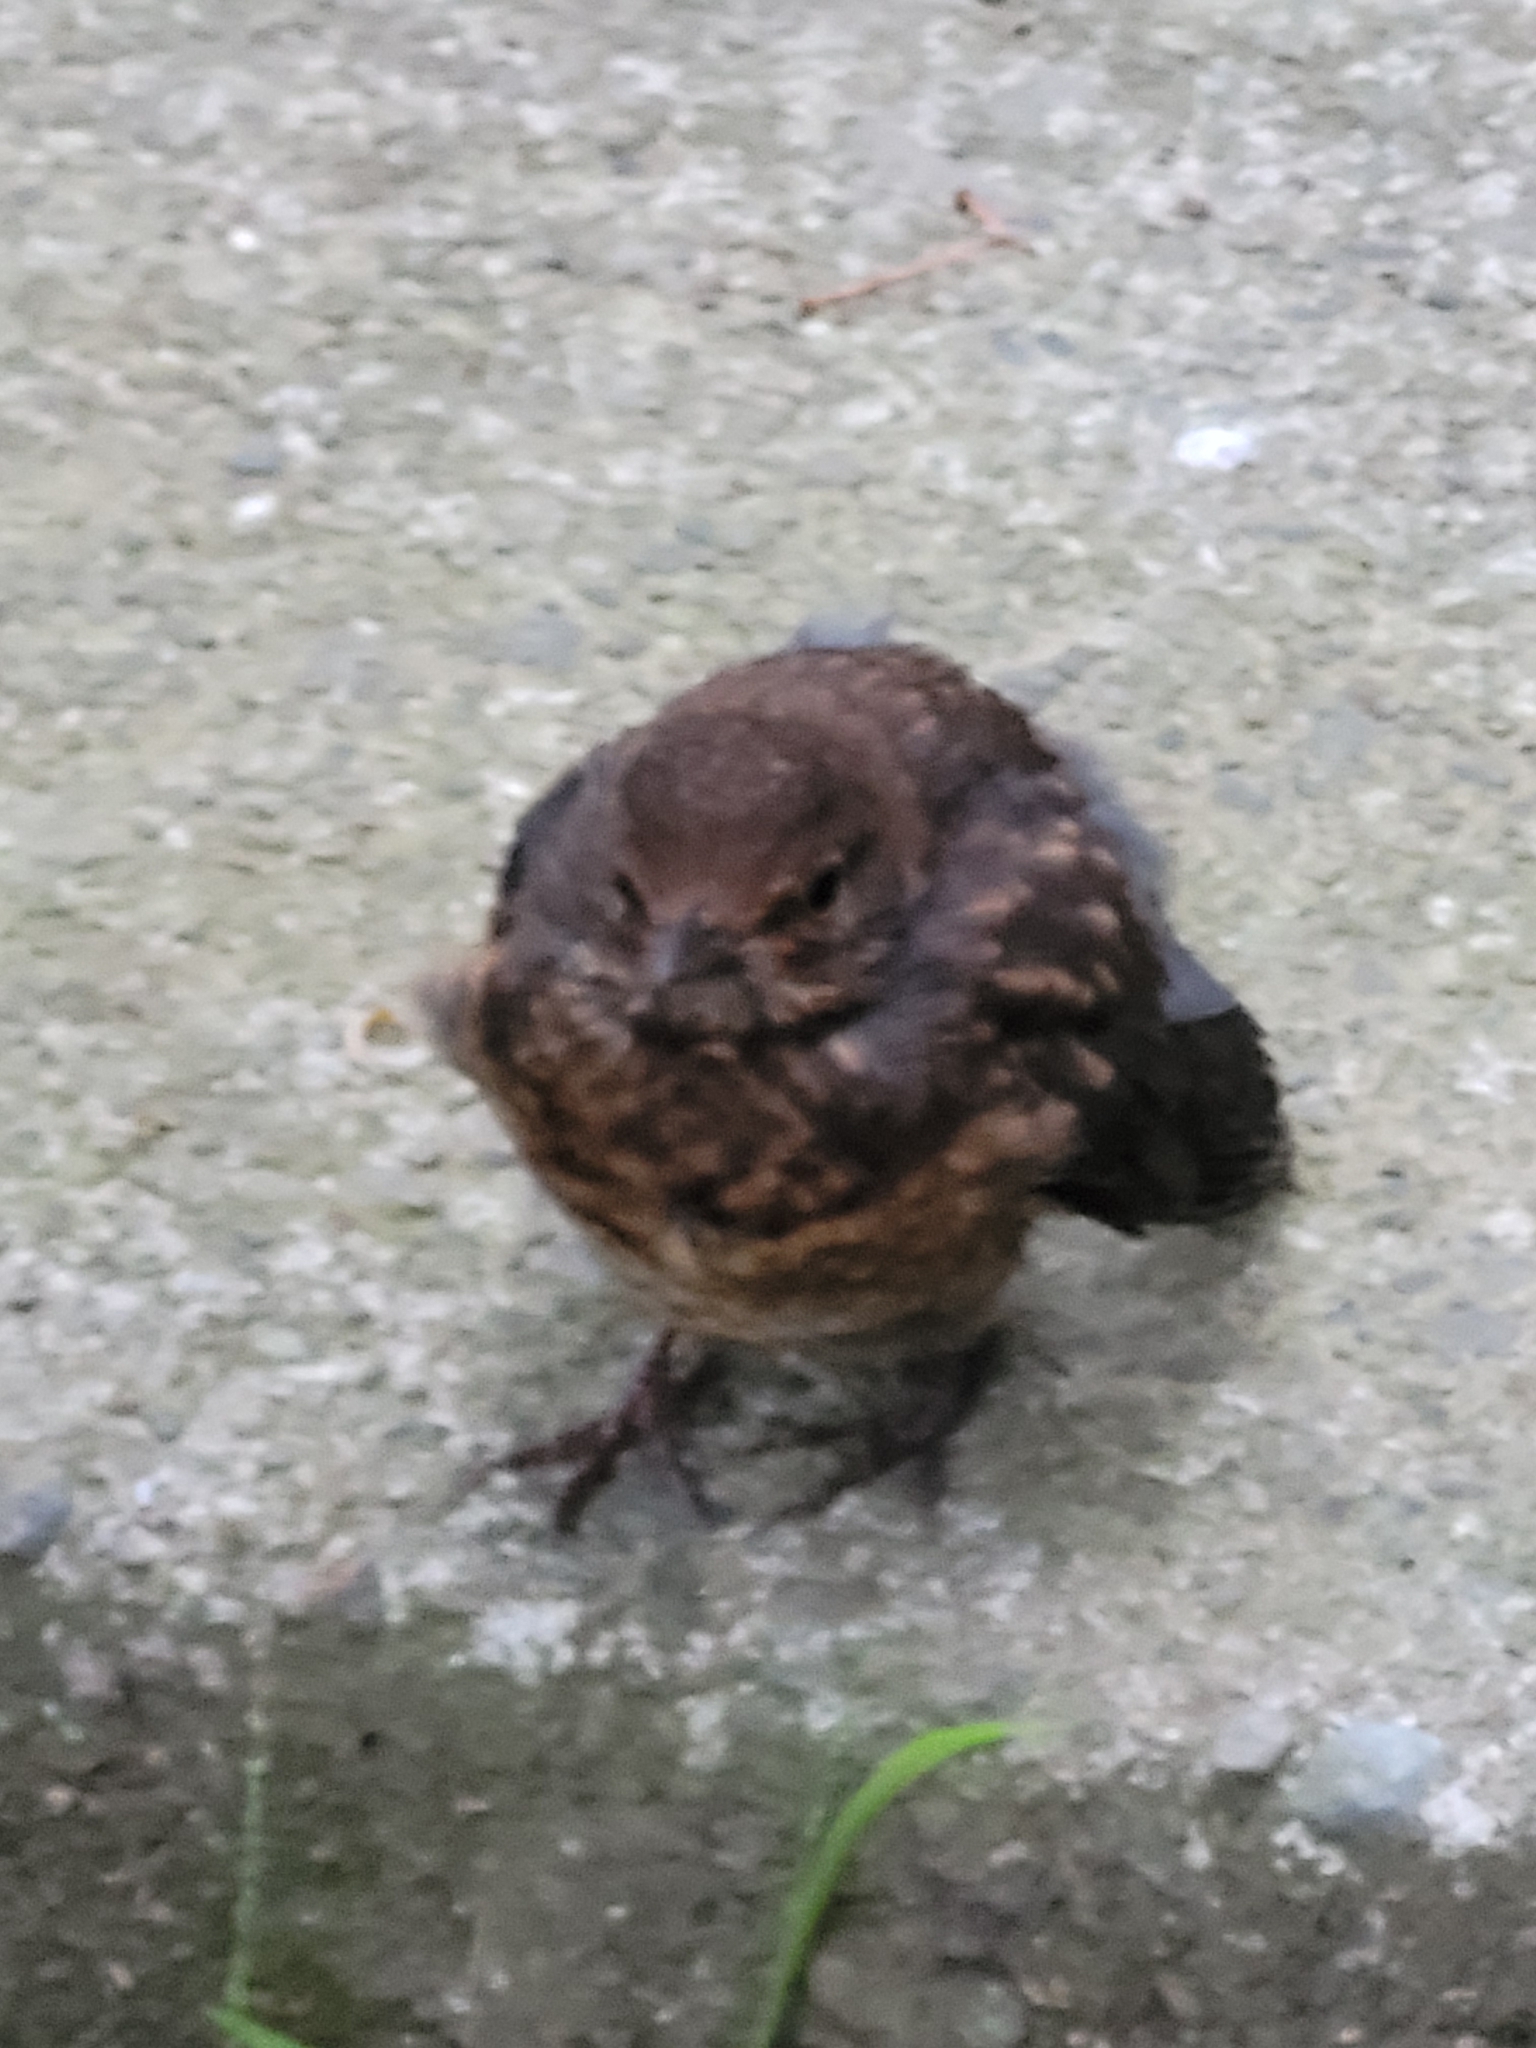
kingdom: Animalia
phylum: Chordata
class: Aves
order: Passeriformes
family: Turdidae
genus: Turdus
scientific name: Turdus merula
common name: Common blackbird
